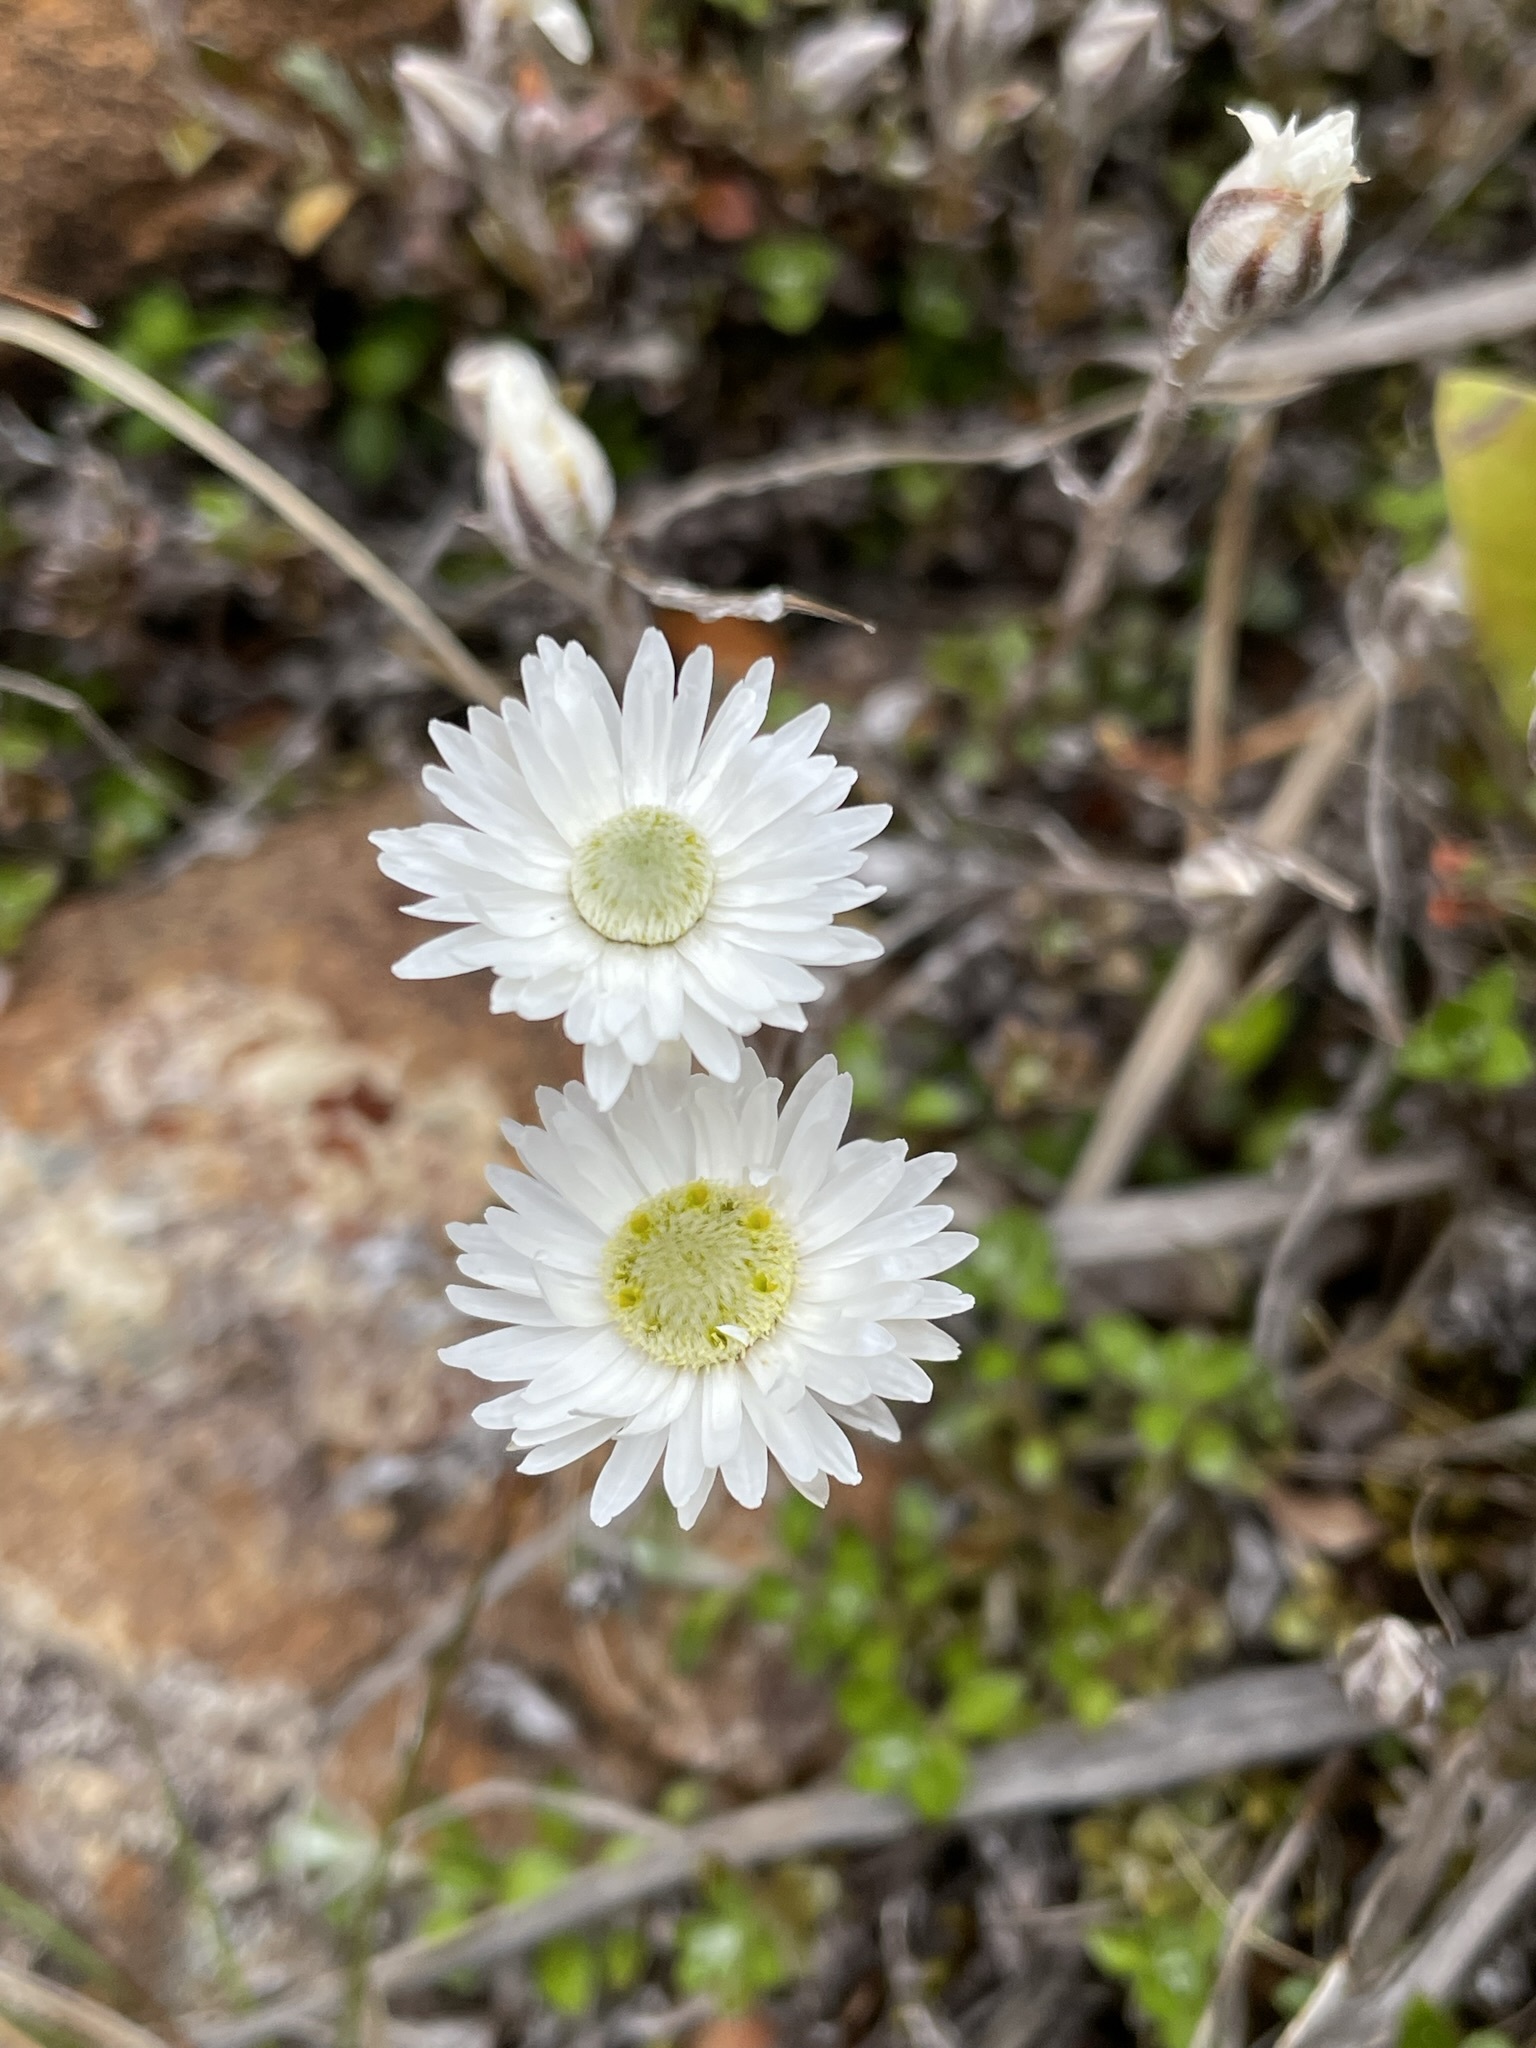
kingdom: Plantae
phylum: Tracheophyta
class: Magnoliopsida
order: Asterales
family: Asteraceae
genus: Anaphalioides
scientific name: Anaphalioides bellidioides
